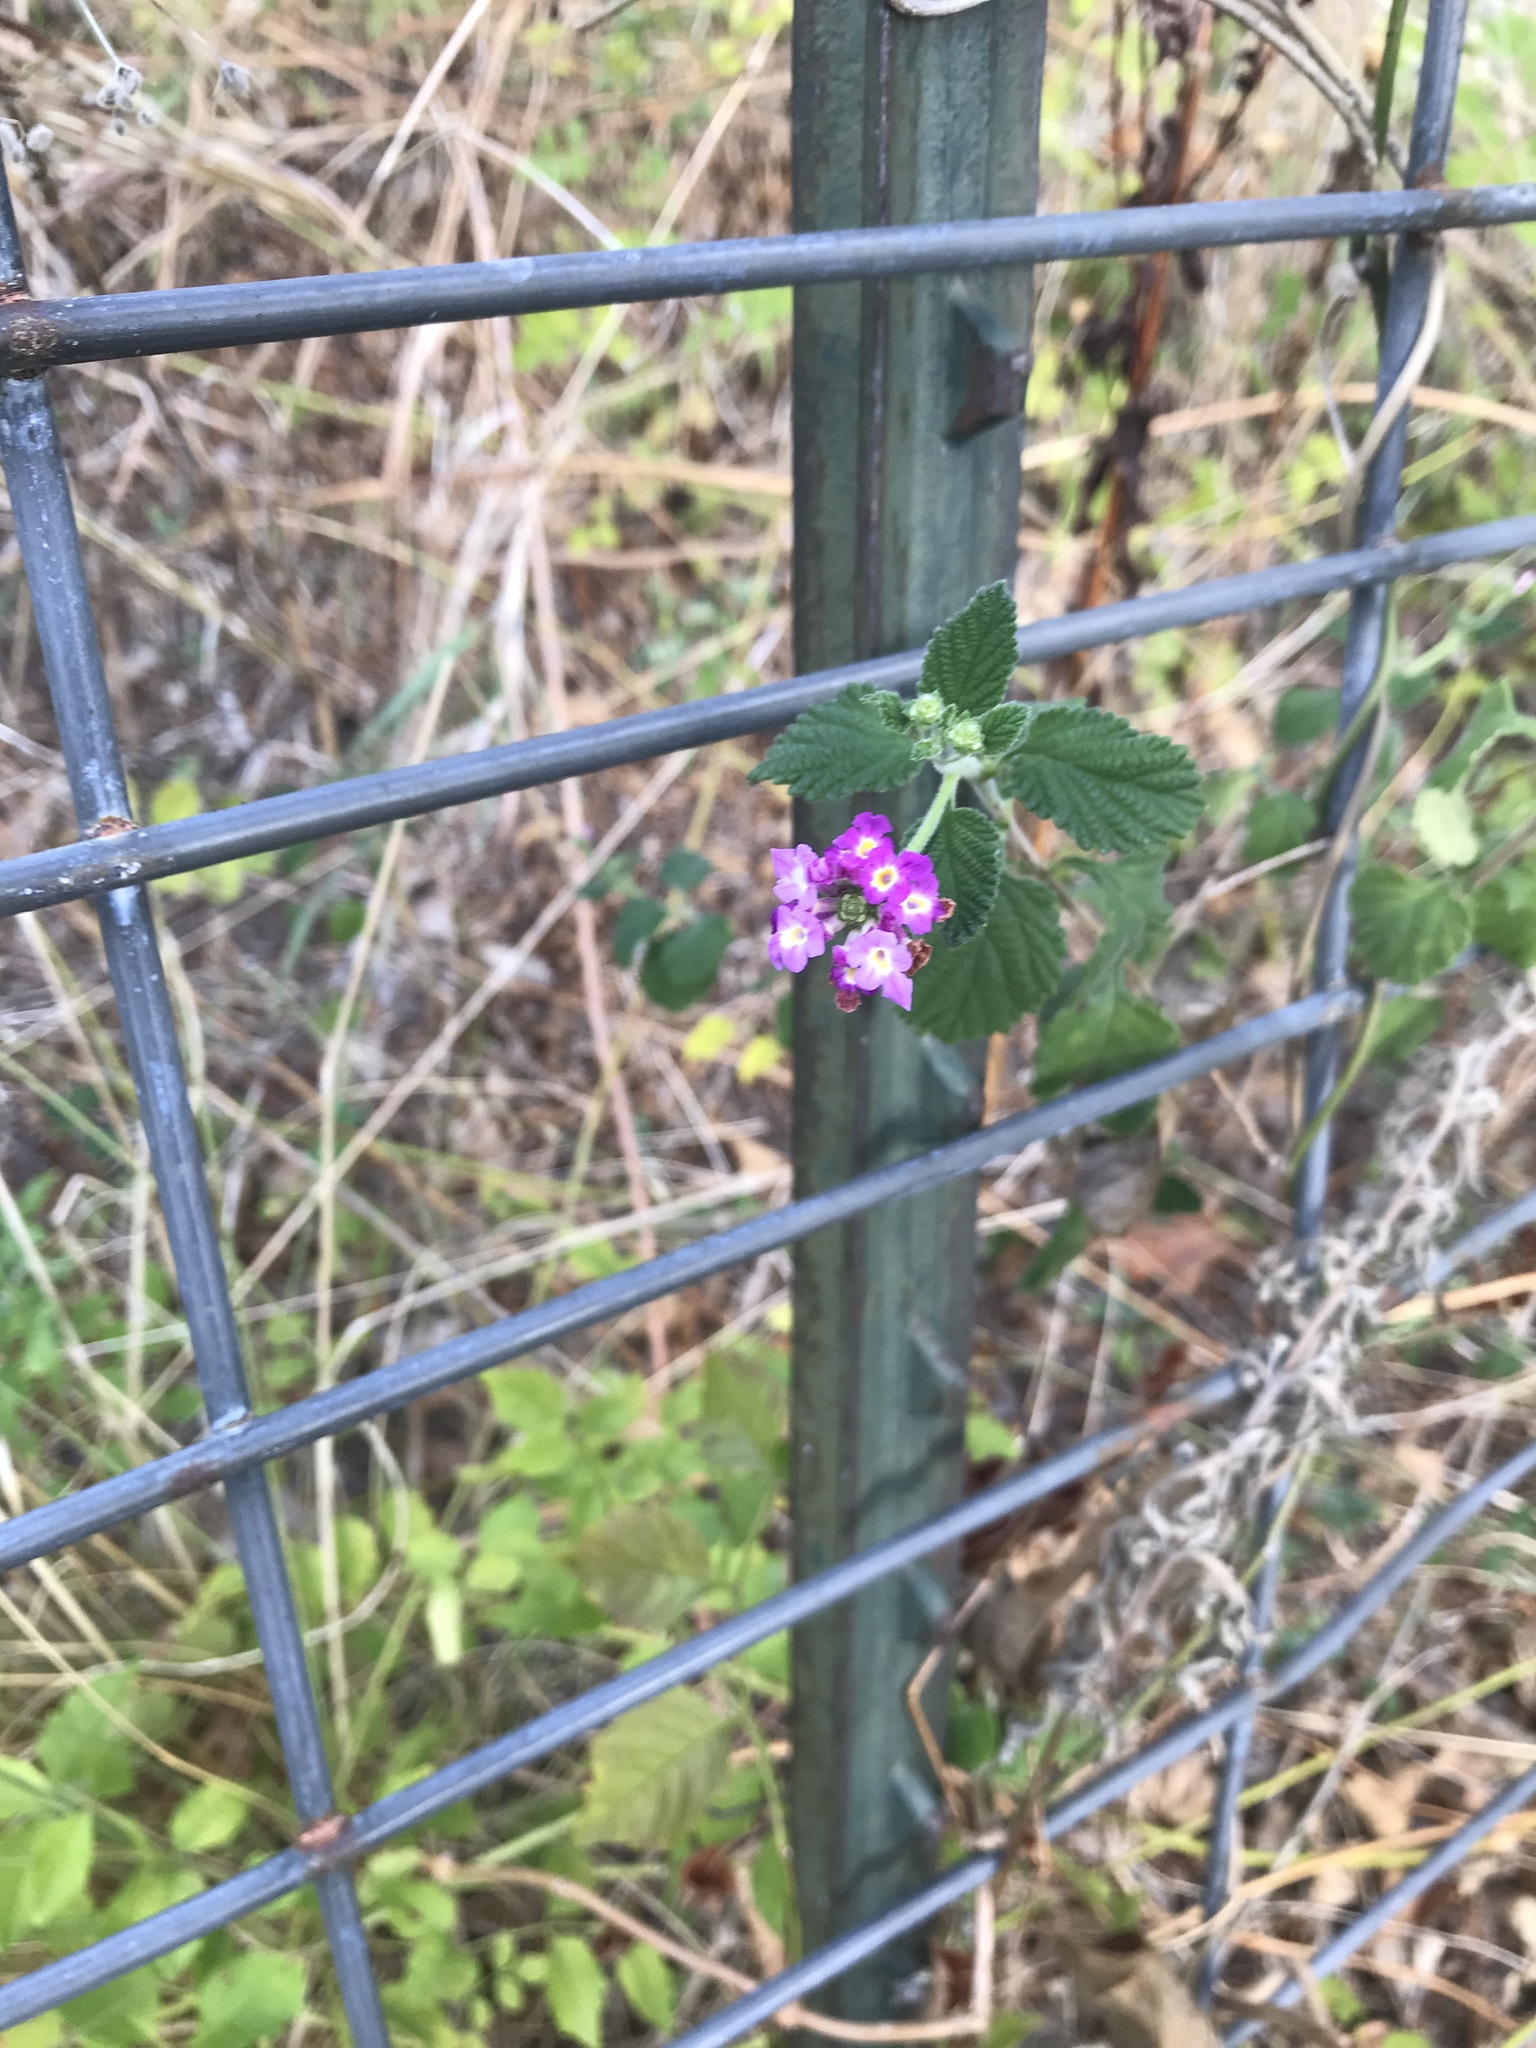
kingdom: Plantae
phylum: Tracheophyta
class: Magnoliopsida
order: Lamiales
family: Verbenaceae
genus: Lantana
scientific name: Lantana montevidensis
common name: Trailing shrubverbena
